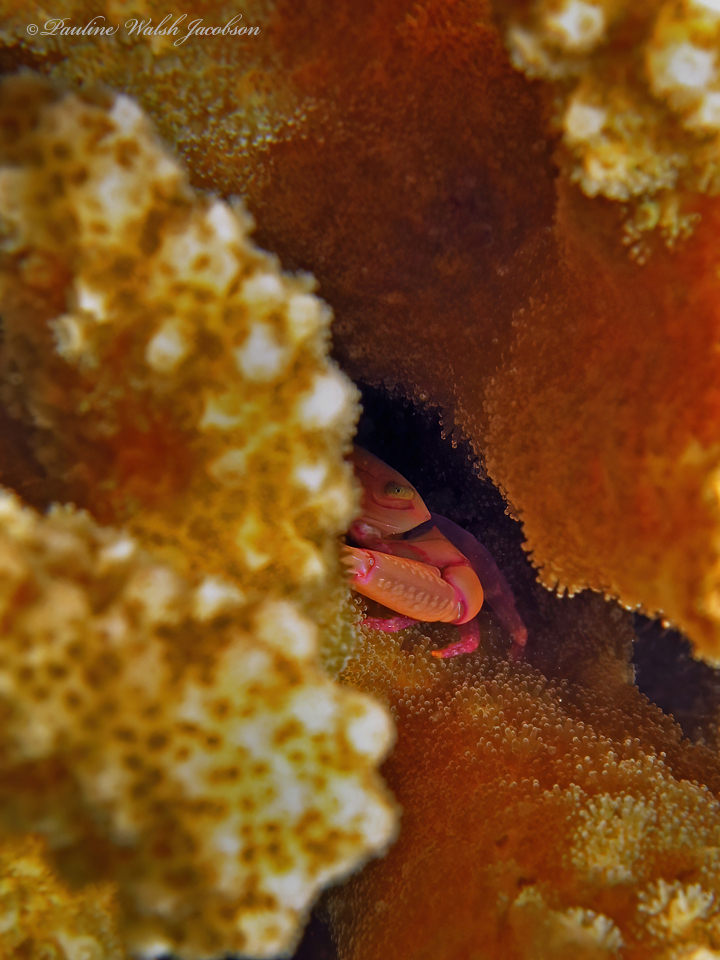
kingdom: Animalia
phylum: Arthropoda
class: Malacostraca
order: Decapoda
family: Trapeziidae
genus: Trapezia
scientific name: Trapezia serenei
